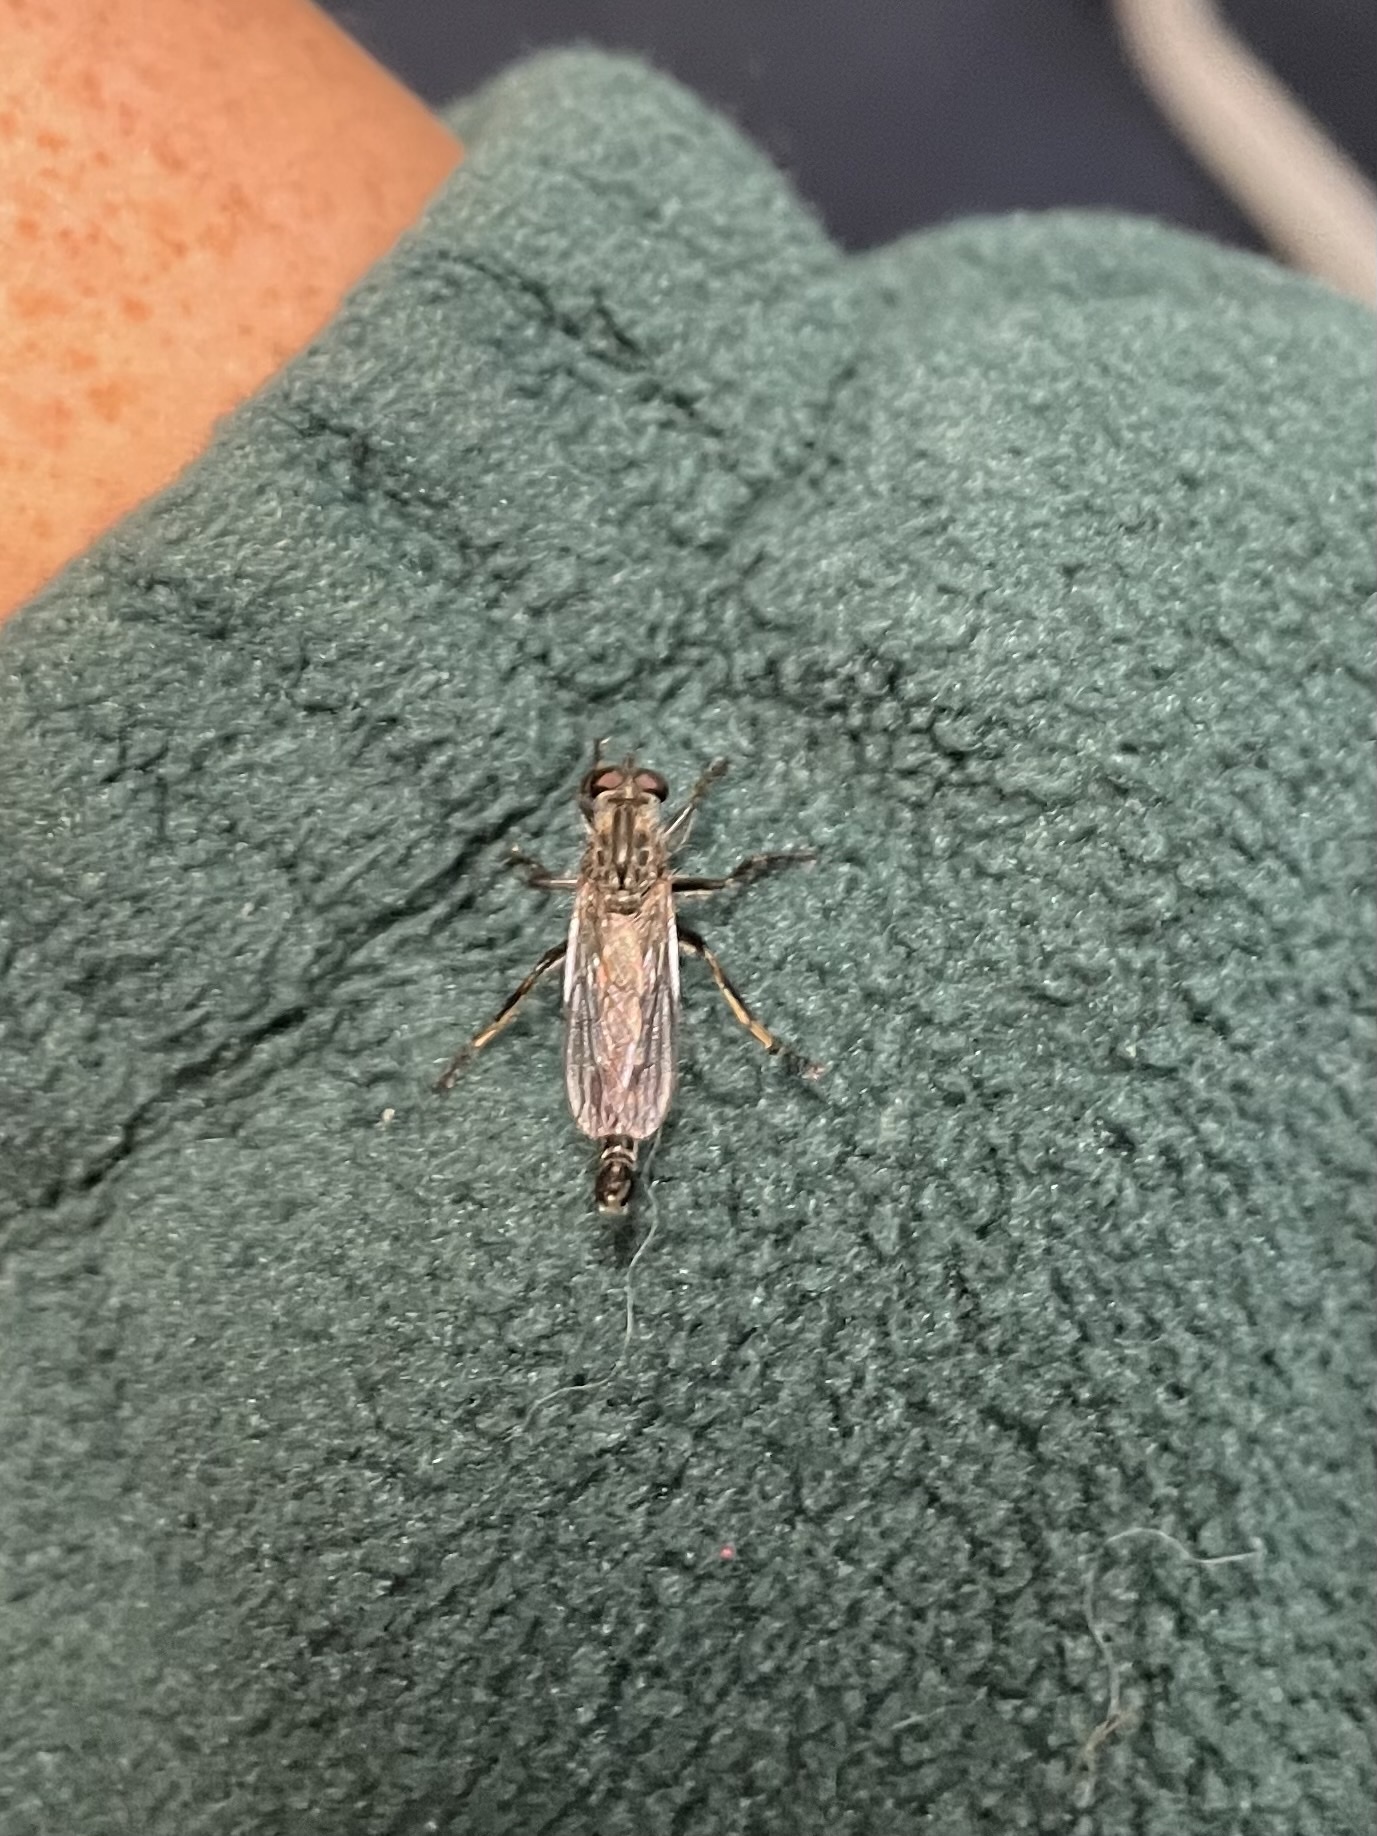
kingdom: Animalia
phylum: Arthropoda
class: Insecta
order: Diptera
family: Asilidae
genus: Machimus
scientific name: Machimus sadyates
